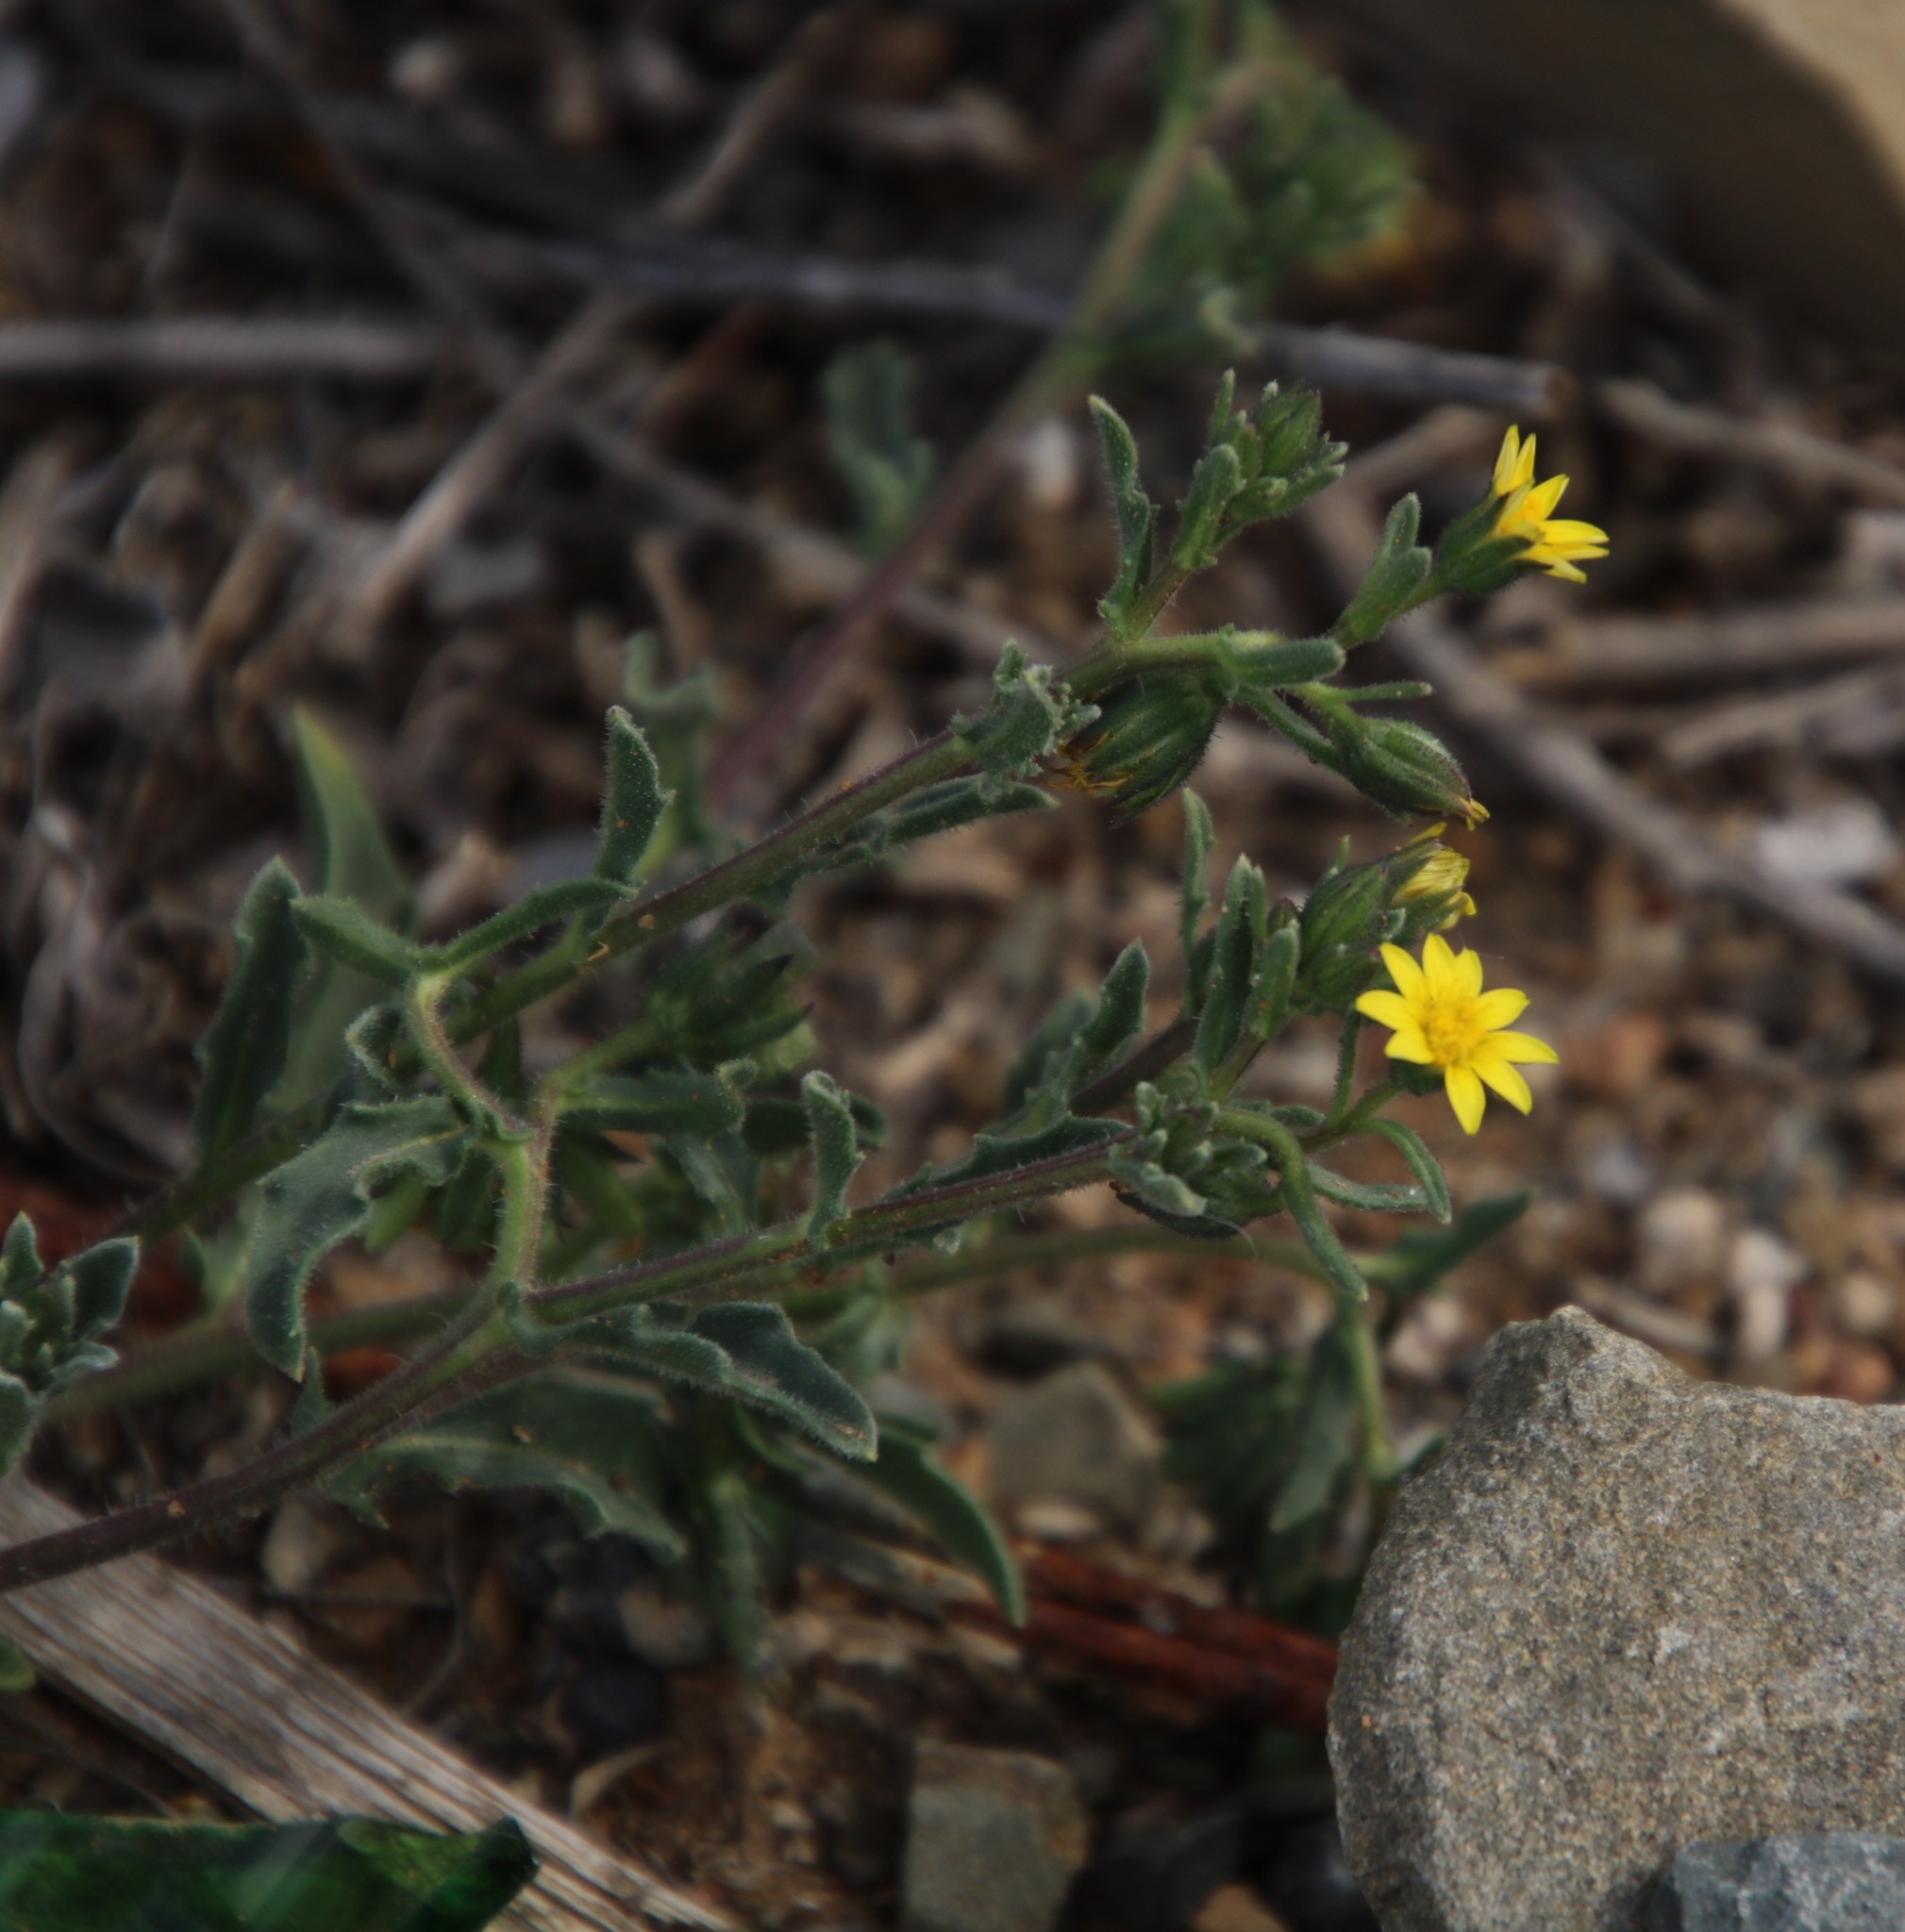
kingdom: Plantae
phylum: Tracheophyta
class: Magnoliopsida
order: Asterales
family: Asteraceae
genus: Osteospermum
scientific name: Osteospermum calendulaceum
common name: Stinking roger
